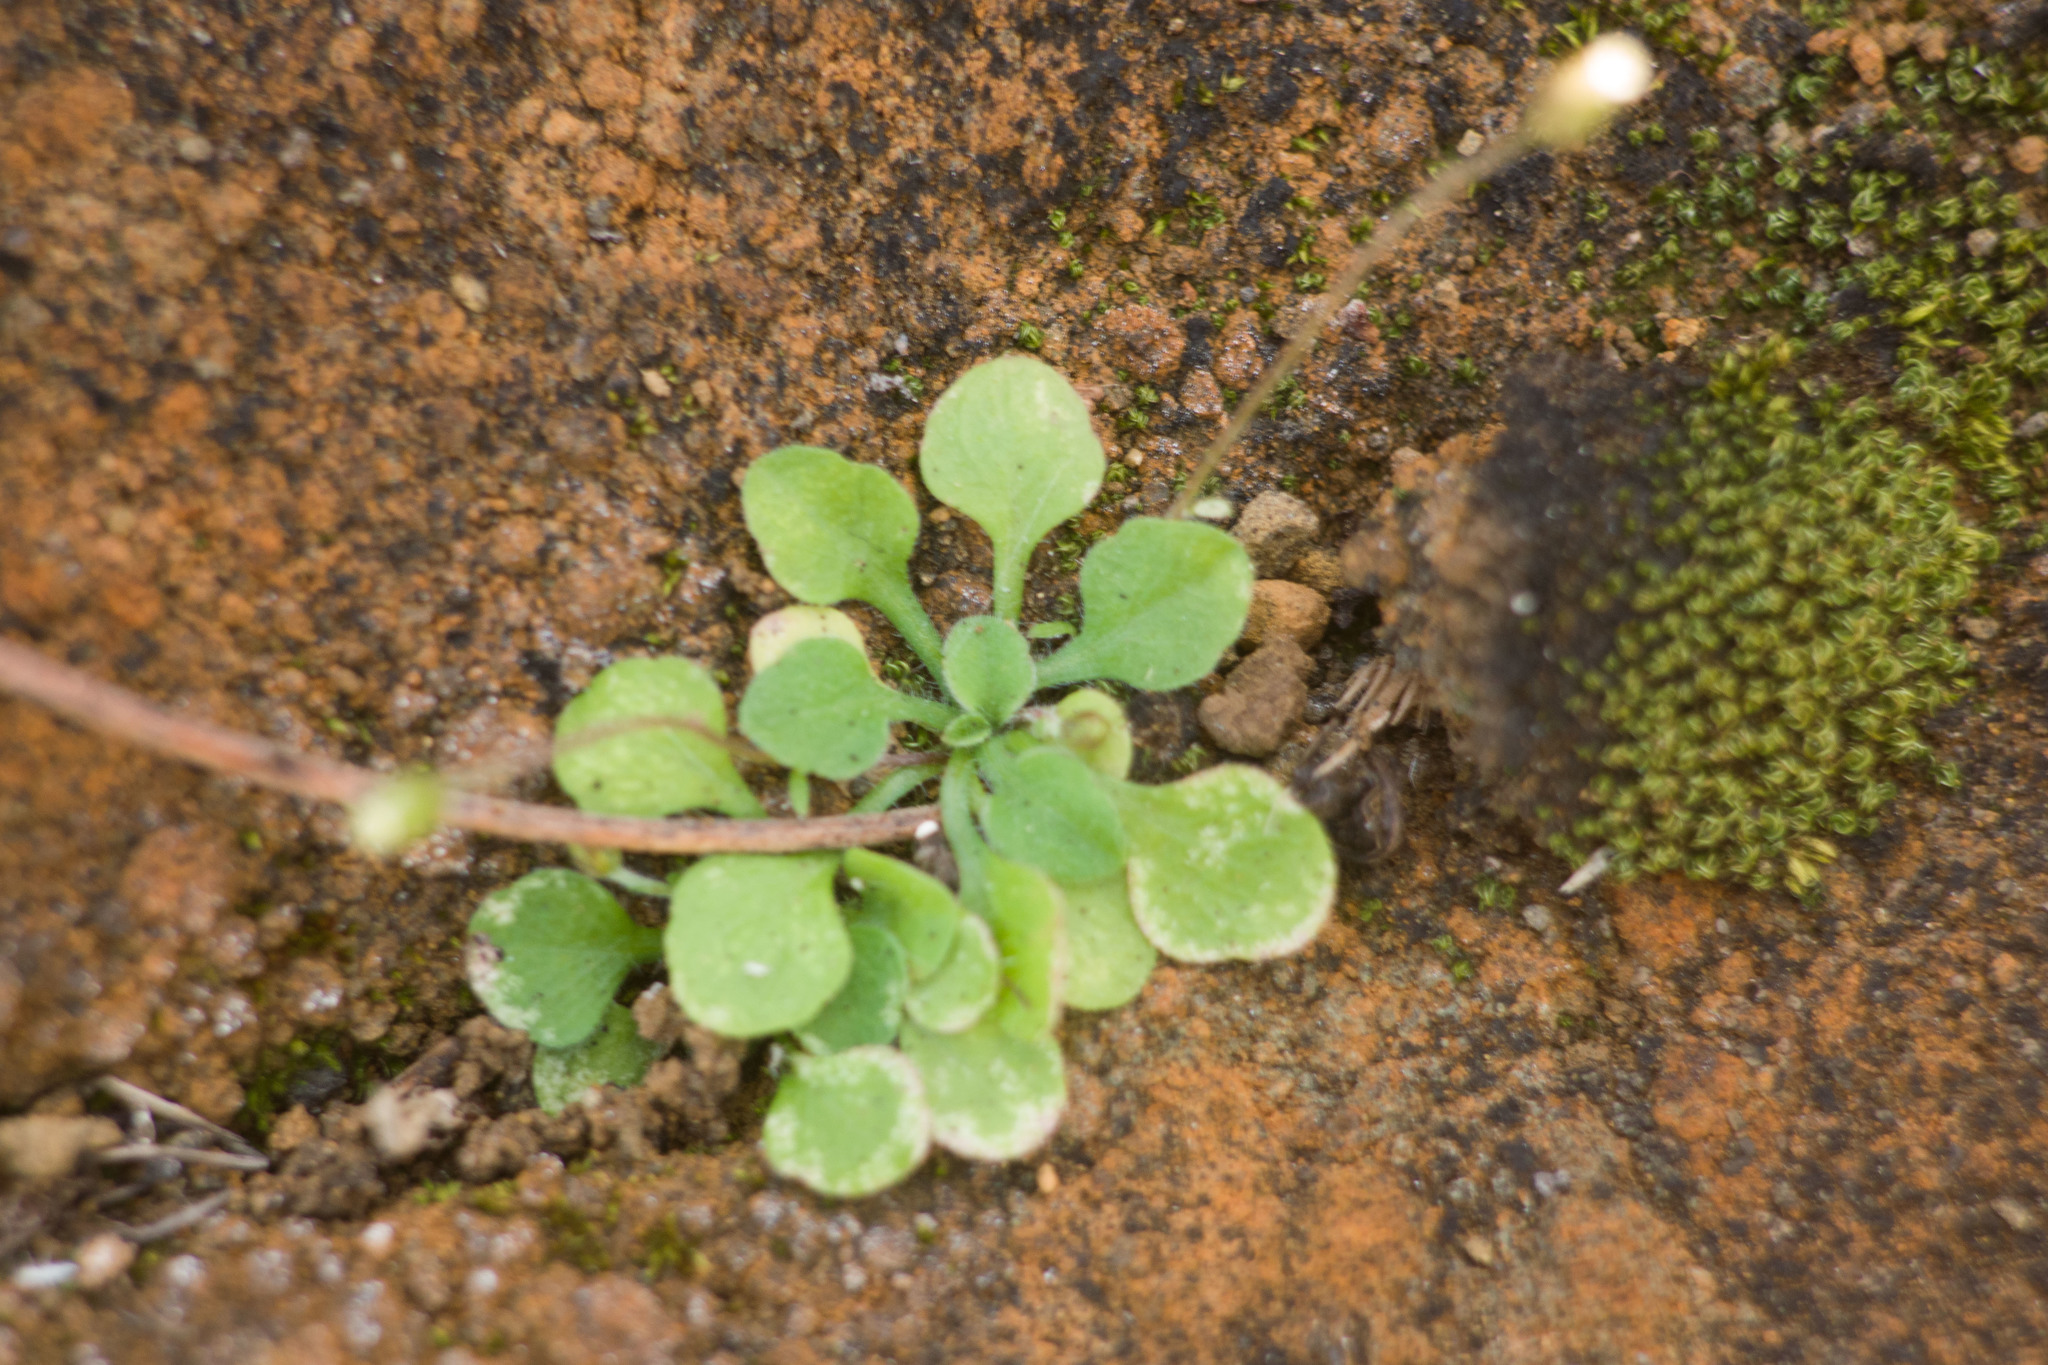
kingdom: Plantae
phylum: Tracheophyta
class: Magnoliopsida
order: Asterales
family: Asteraceae
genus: Erigeron
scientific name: Erigeron bellioides
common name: Bellorita
